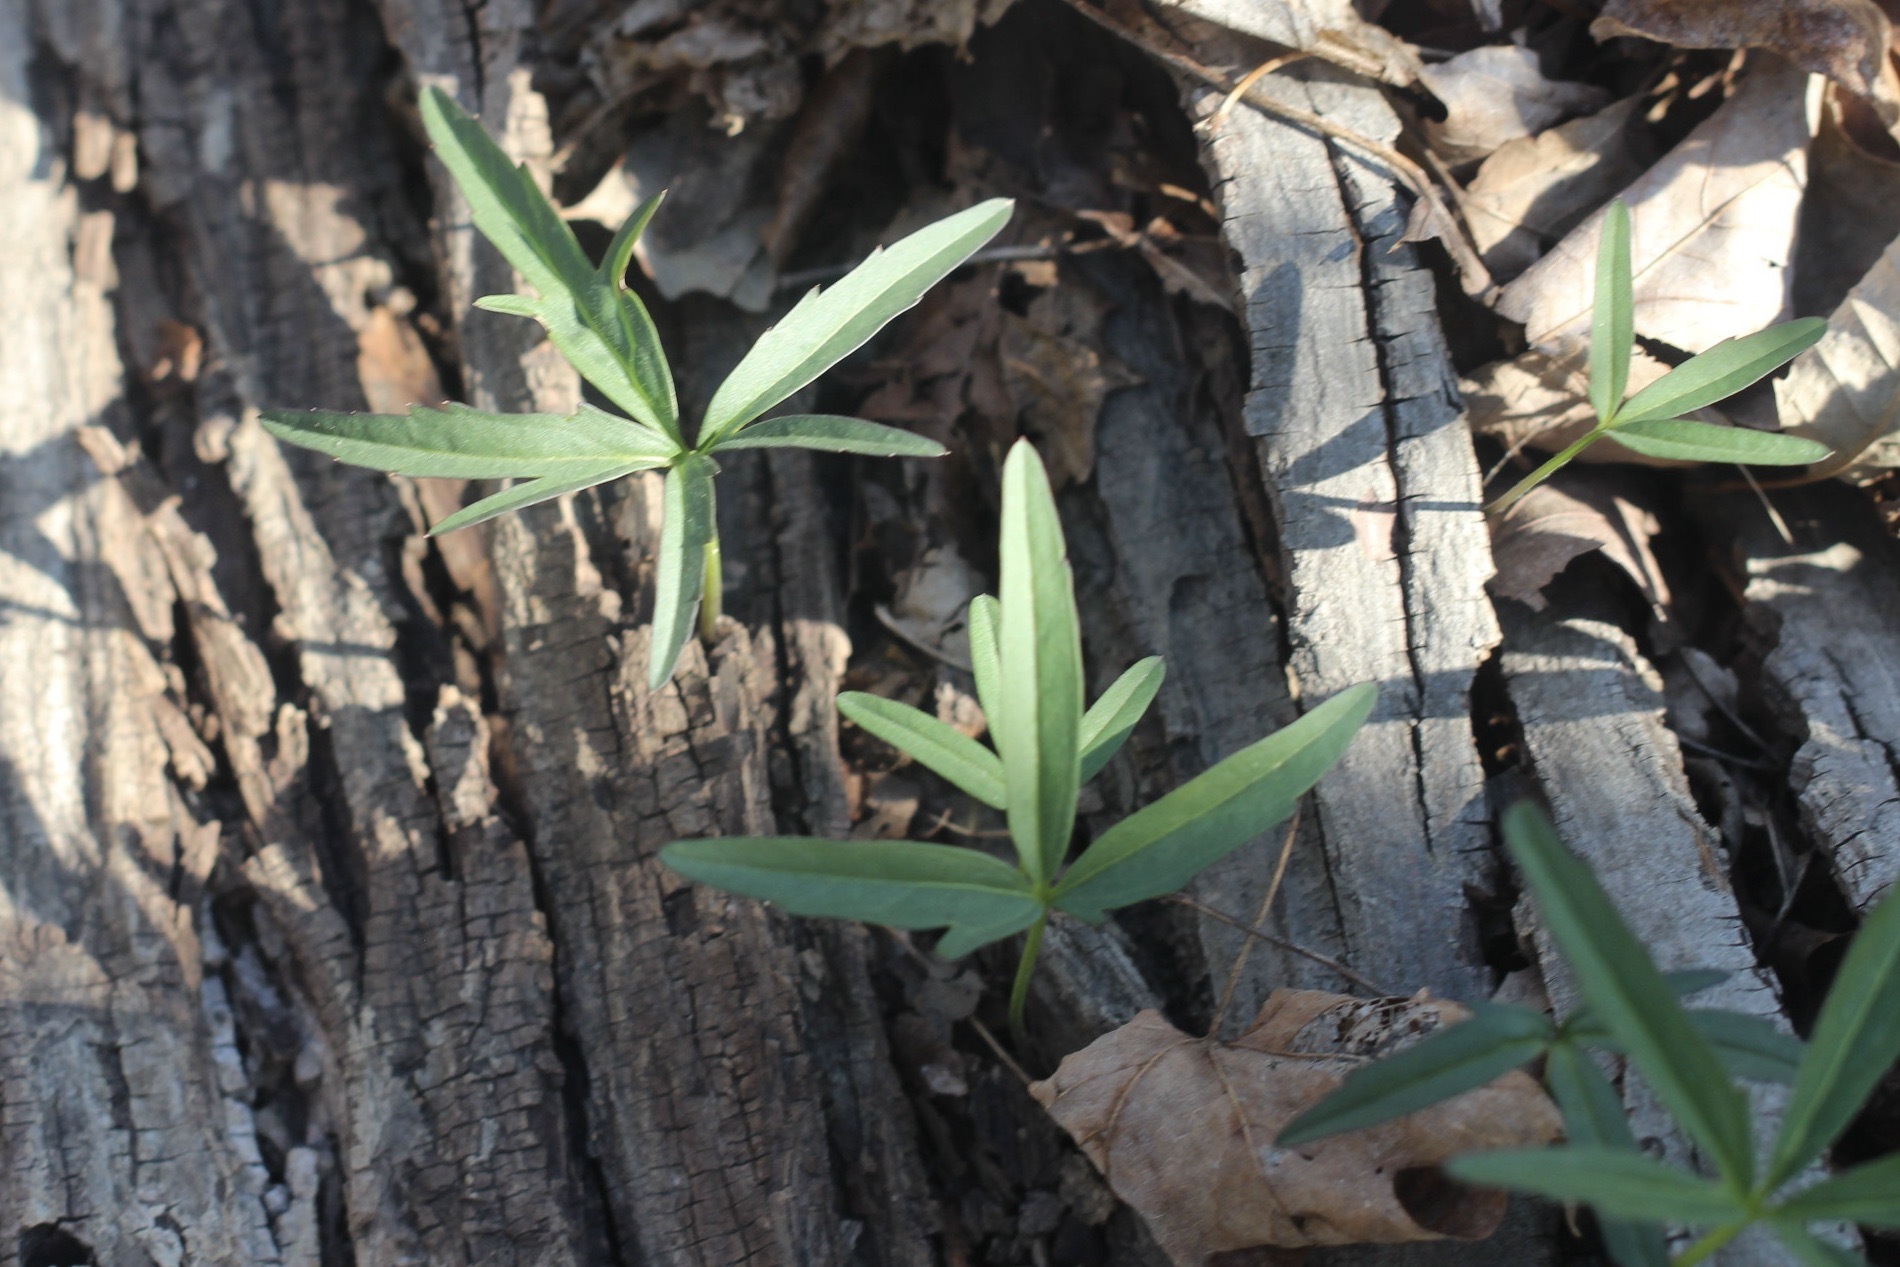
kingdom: Plantae
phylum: Tracheophyta
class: Magnoliopsida
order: Brassicales
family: Brassicaceae
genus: Cardamine
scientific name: Cardamine concatenata
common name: Cut-leaf toothcup
